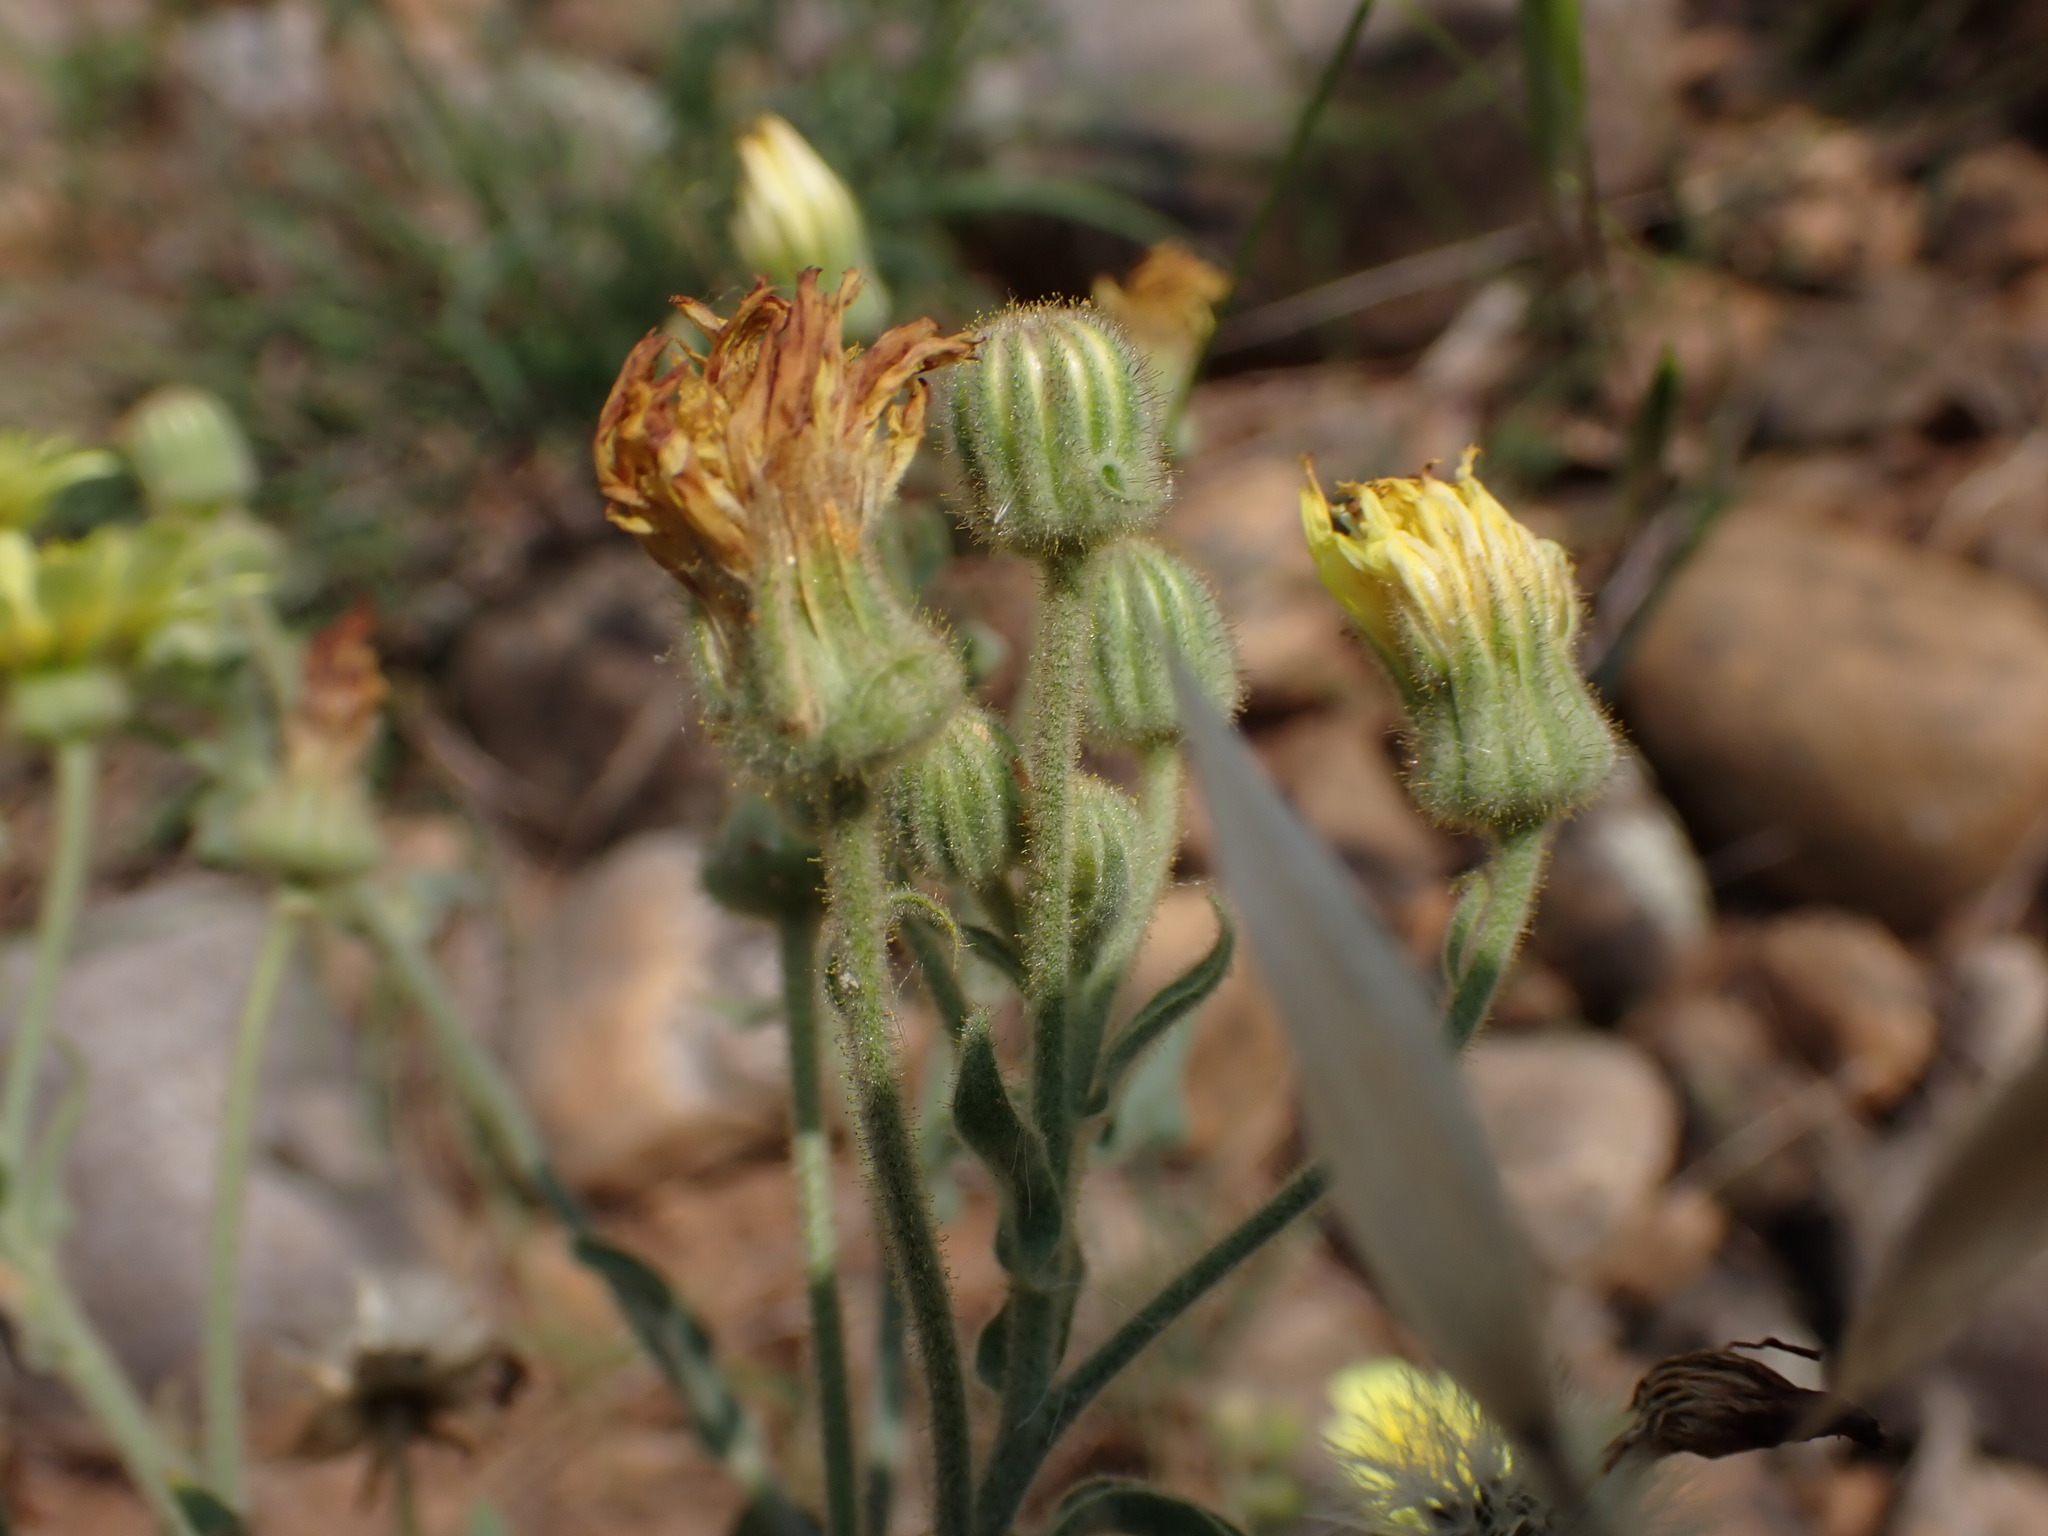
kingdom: Plantae
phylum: Tracheophyta
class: Magnoliopsida
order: Asterales
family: Asteraceae
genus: Andryala
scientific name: Andryala integrifolia
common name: Common andryala
